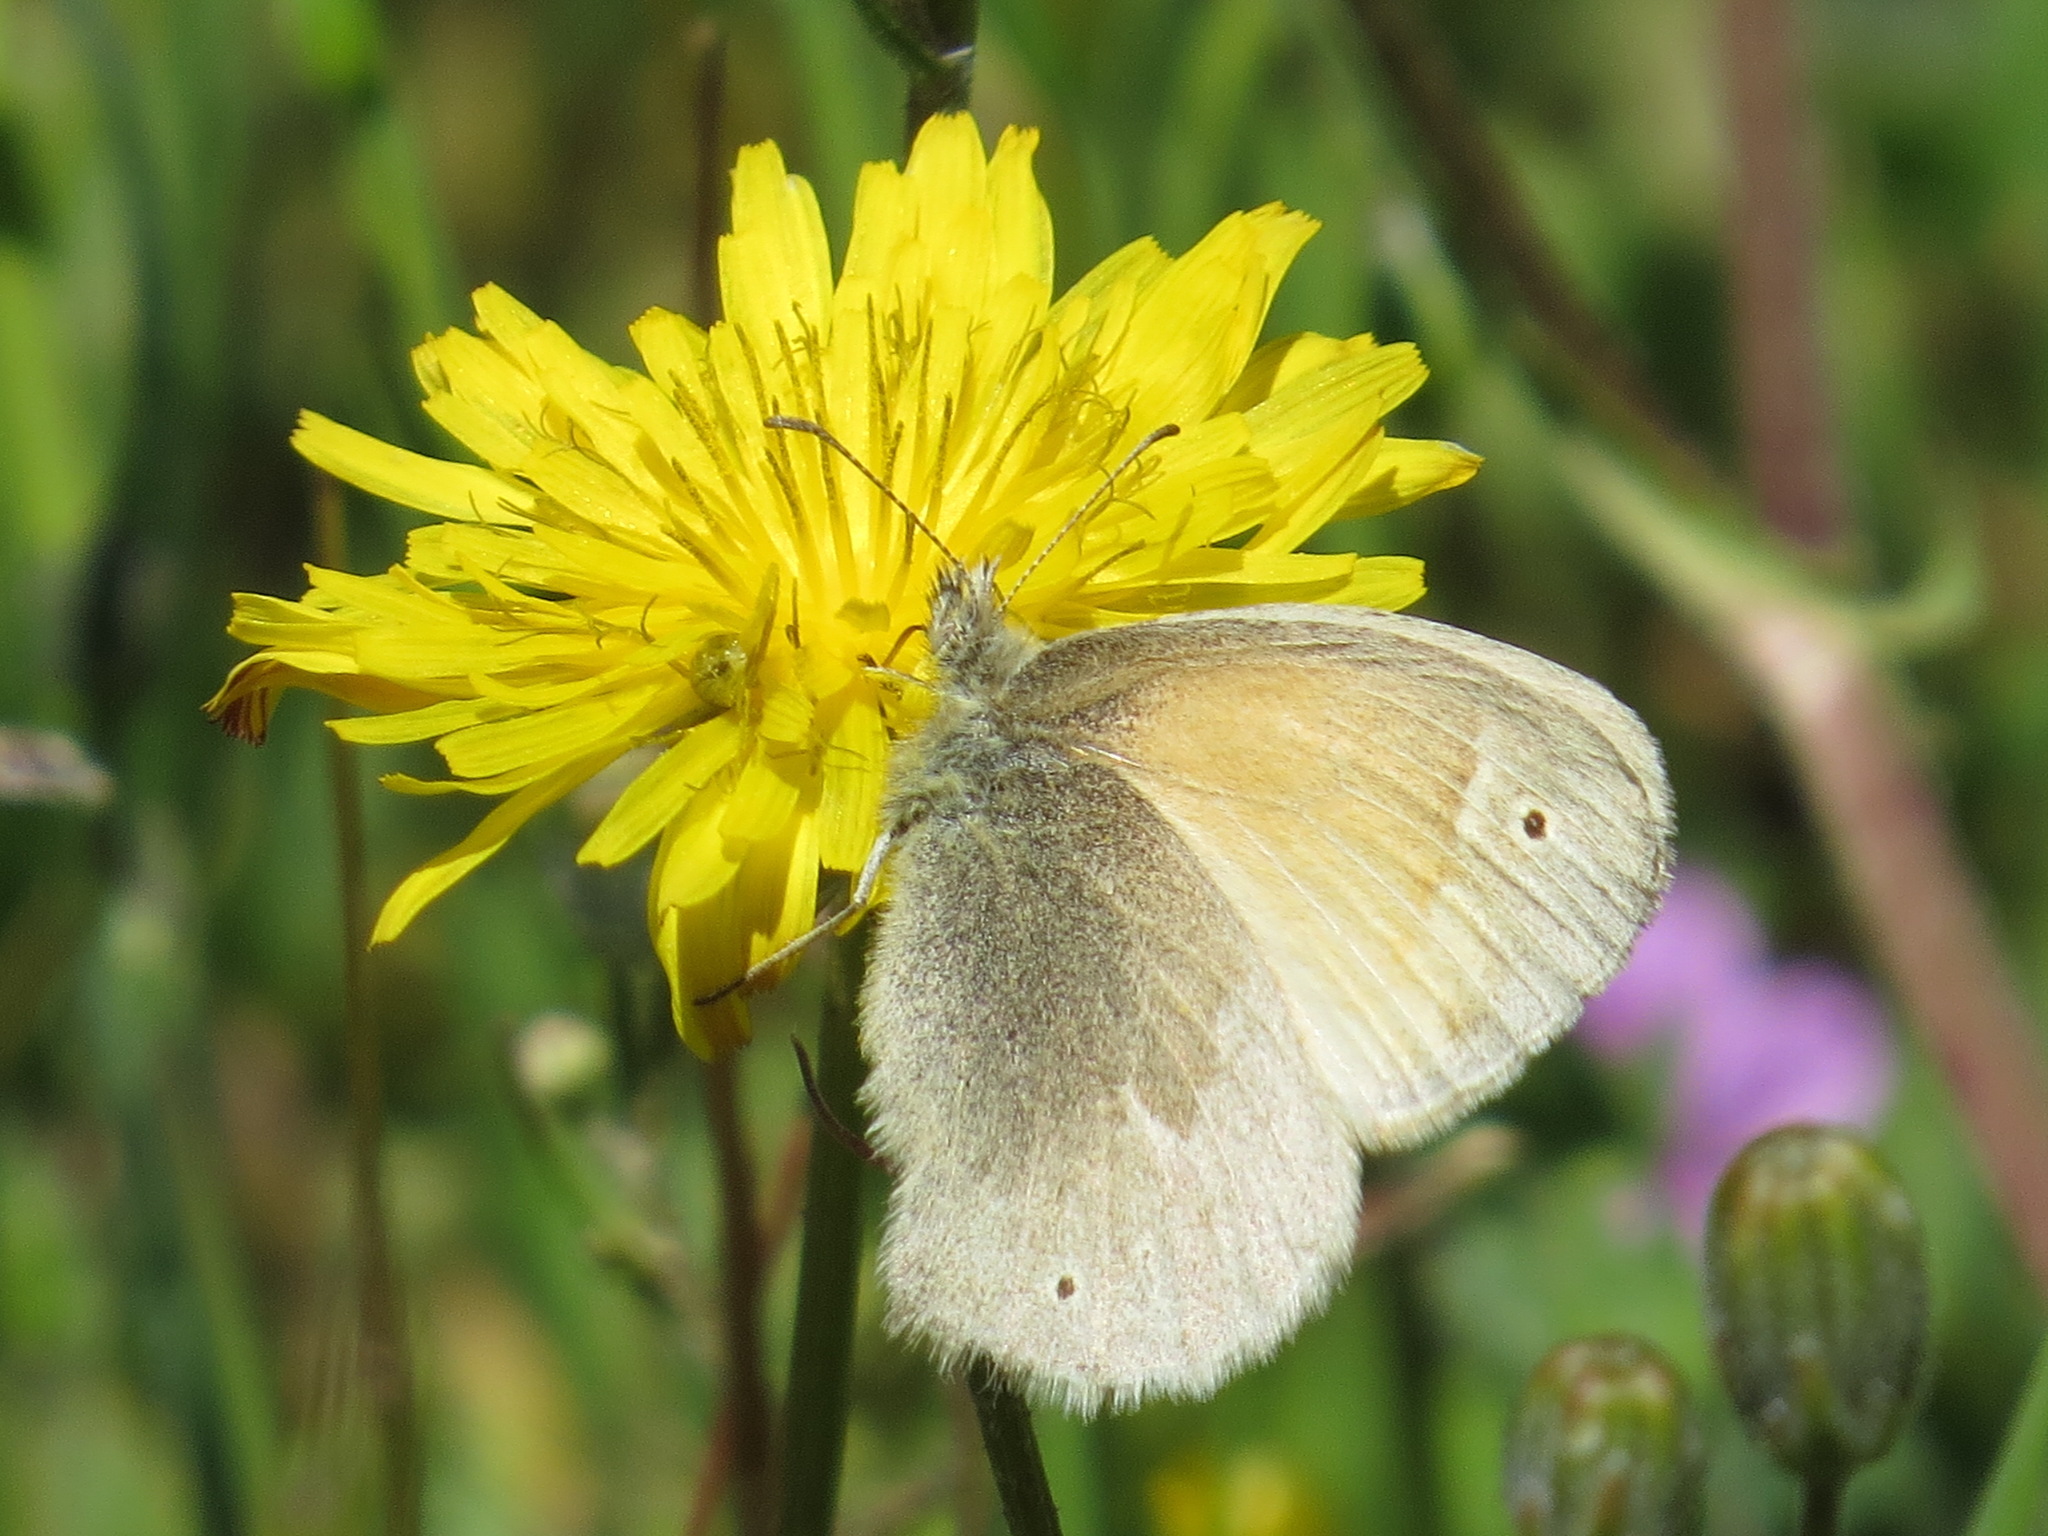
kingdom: Animalia
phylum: Arthropoda
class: Insecta
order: Lepidoptera
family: Nymphalidae
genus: Coenonympha
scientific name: Coenonympha california
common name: Common ringlet
